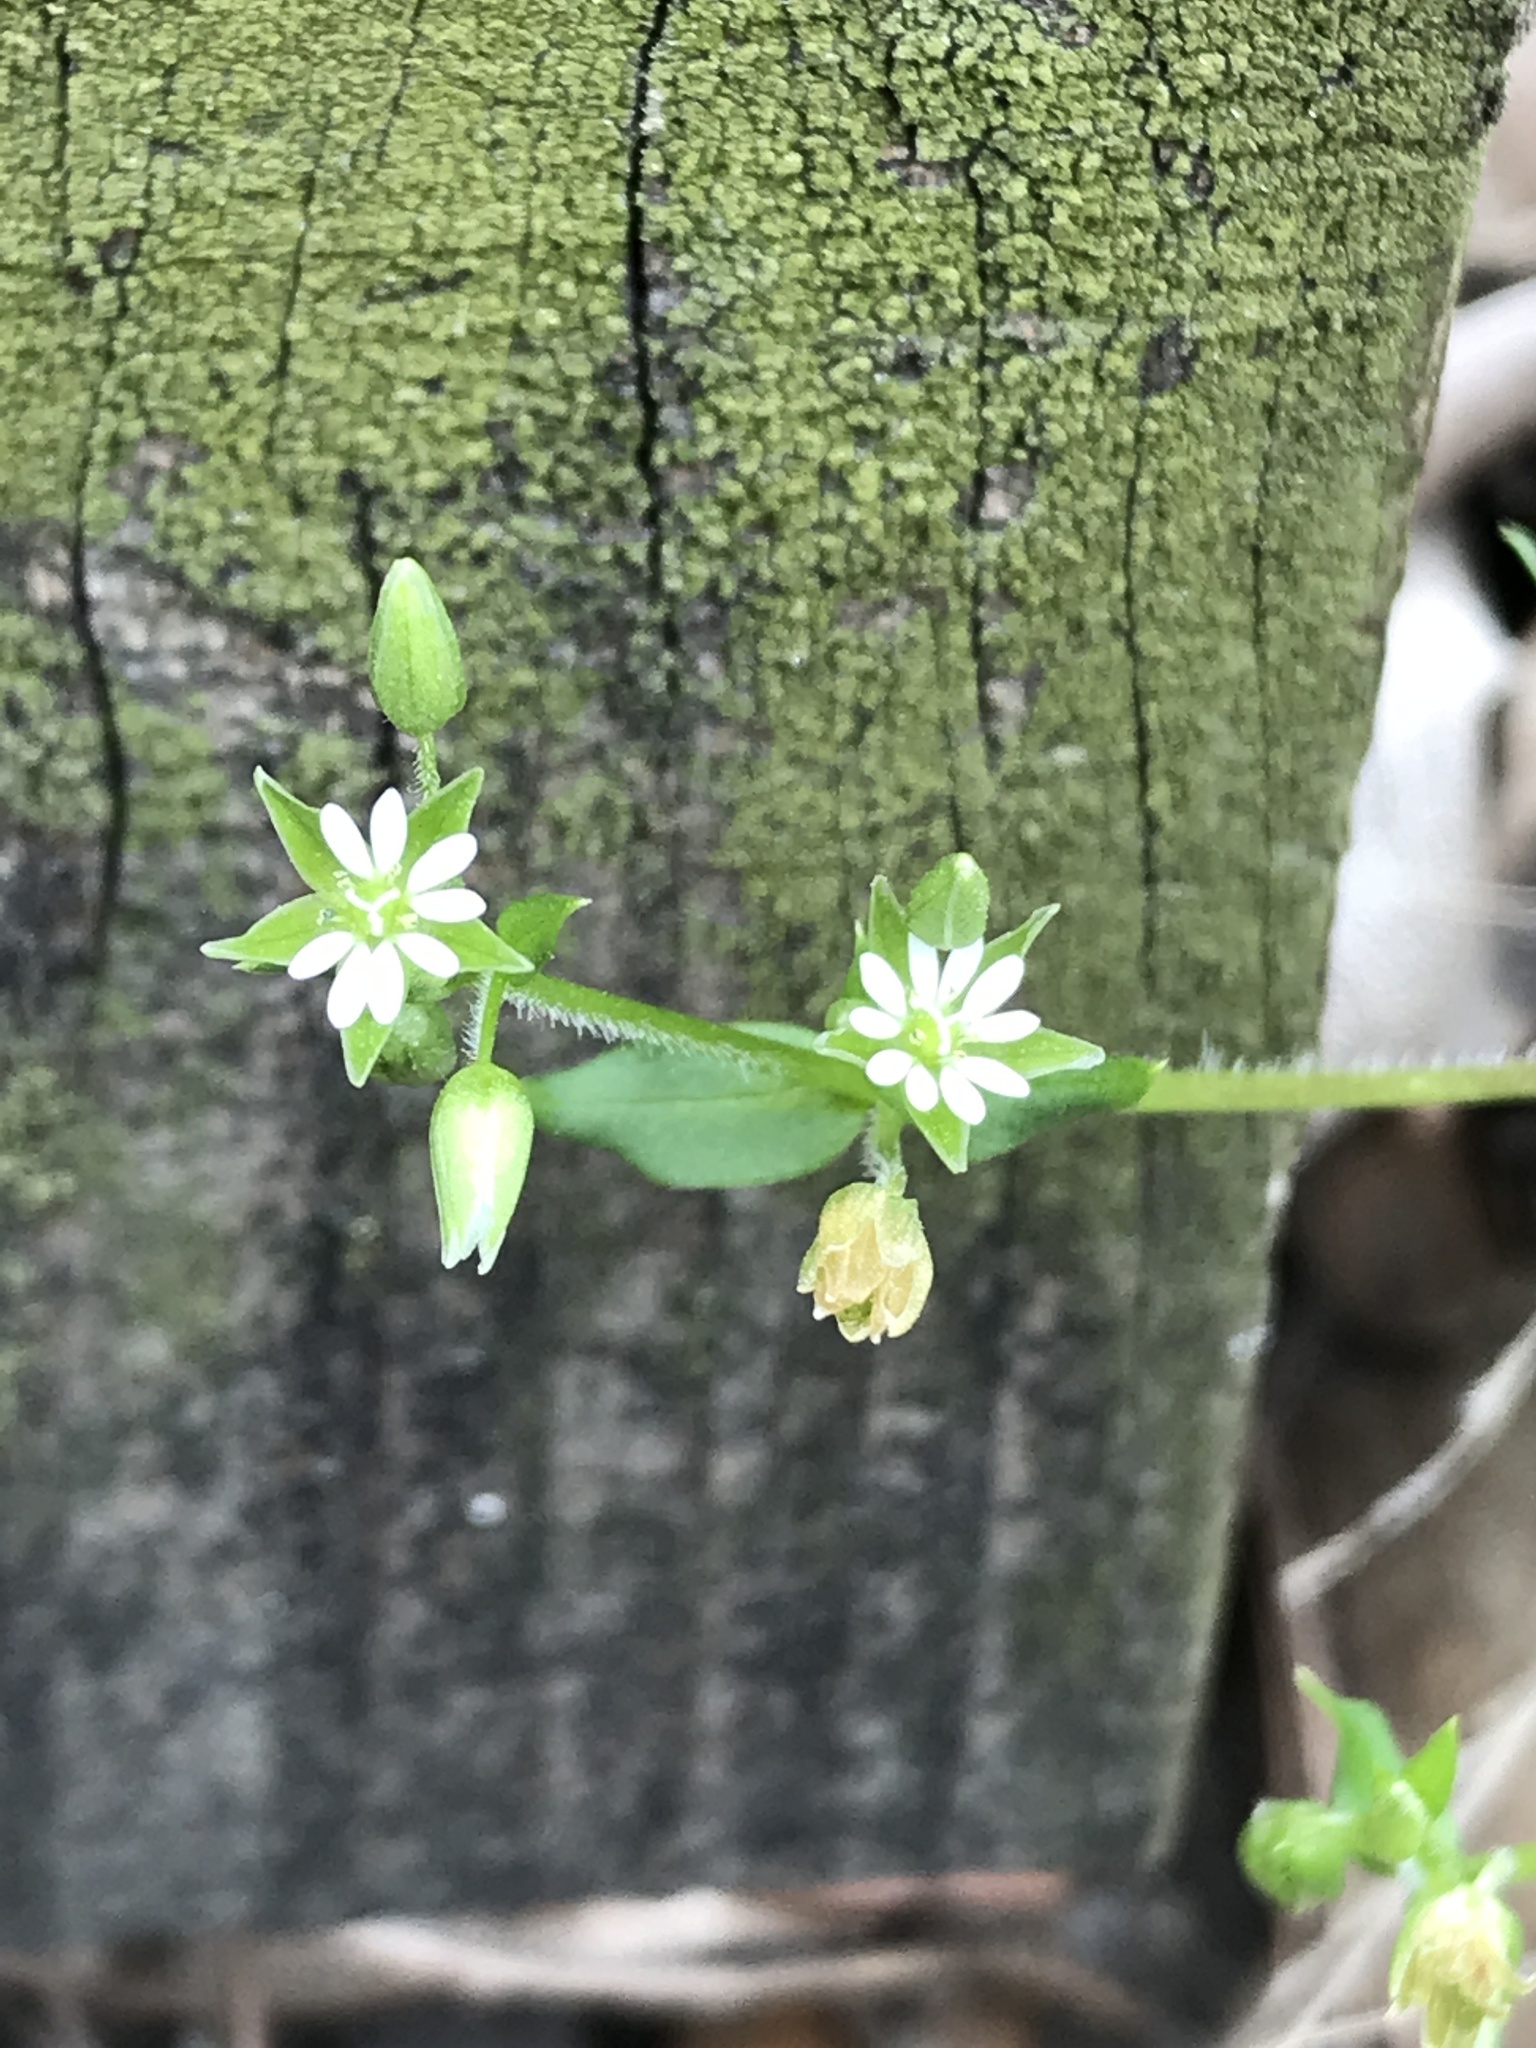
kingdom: Plantae
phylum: Tracheophyta
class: Magnoliopsida
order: Caryophyllales
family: Caryophyllaceae
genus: Stellaria
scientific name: Stellaria media
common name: Common chickweed
